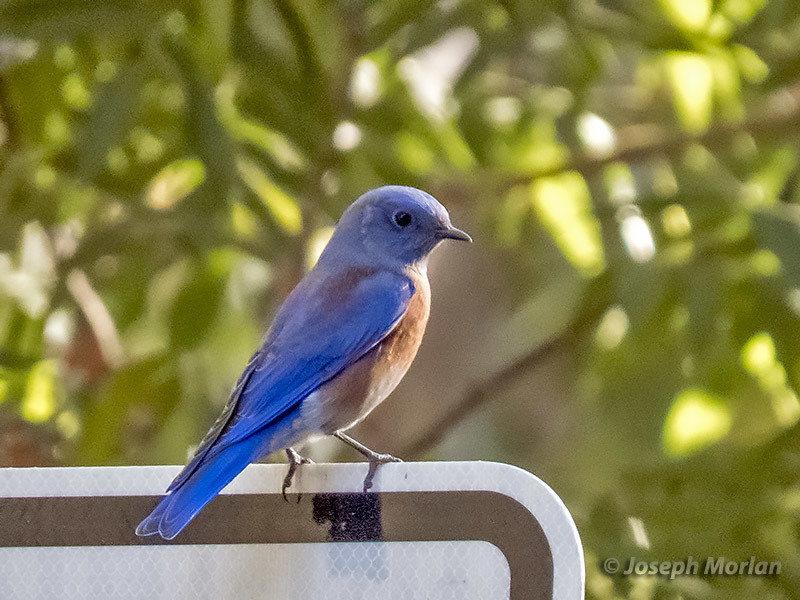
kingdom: Animalia
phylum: Chordata
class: Aves
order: Passeriformes
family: Turdidae
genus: Sialia
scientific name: Sialia mexicana
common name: Western bluebird
